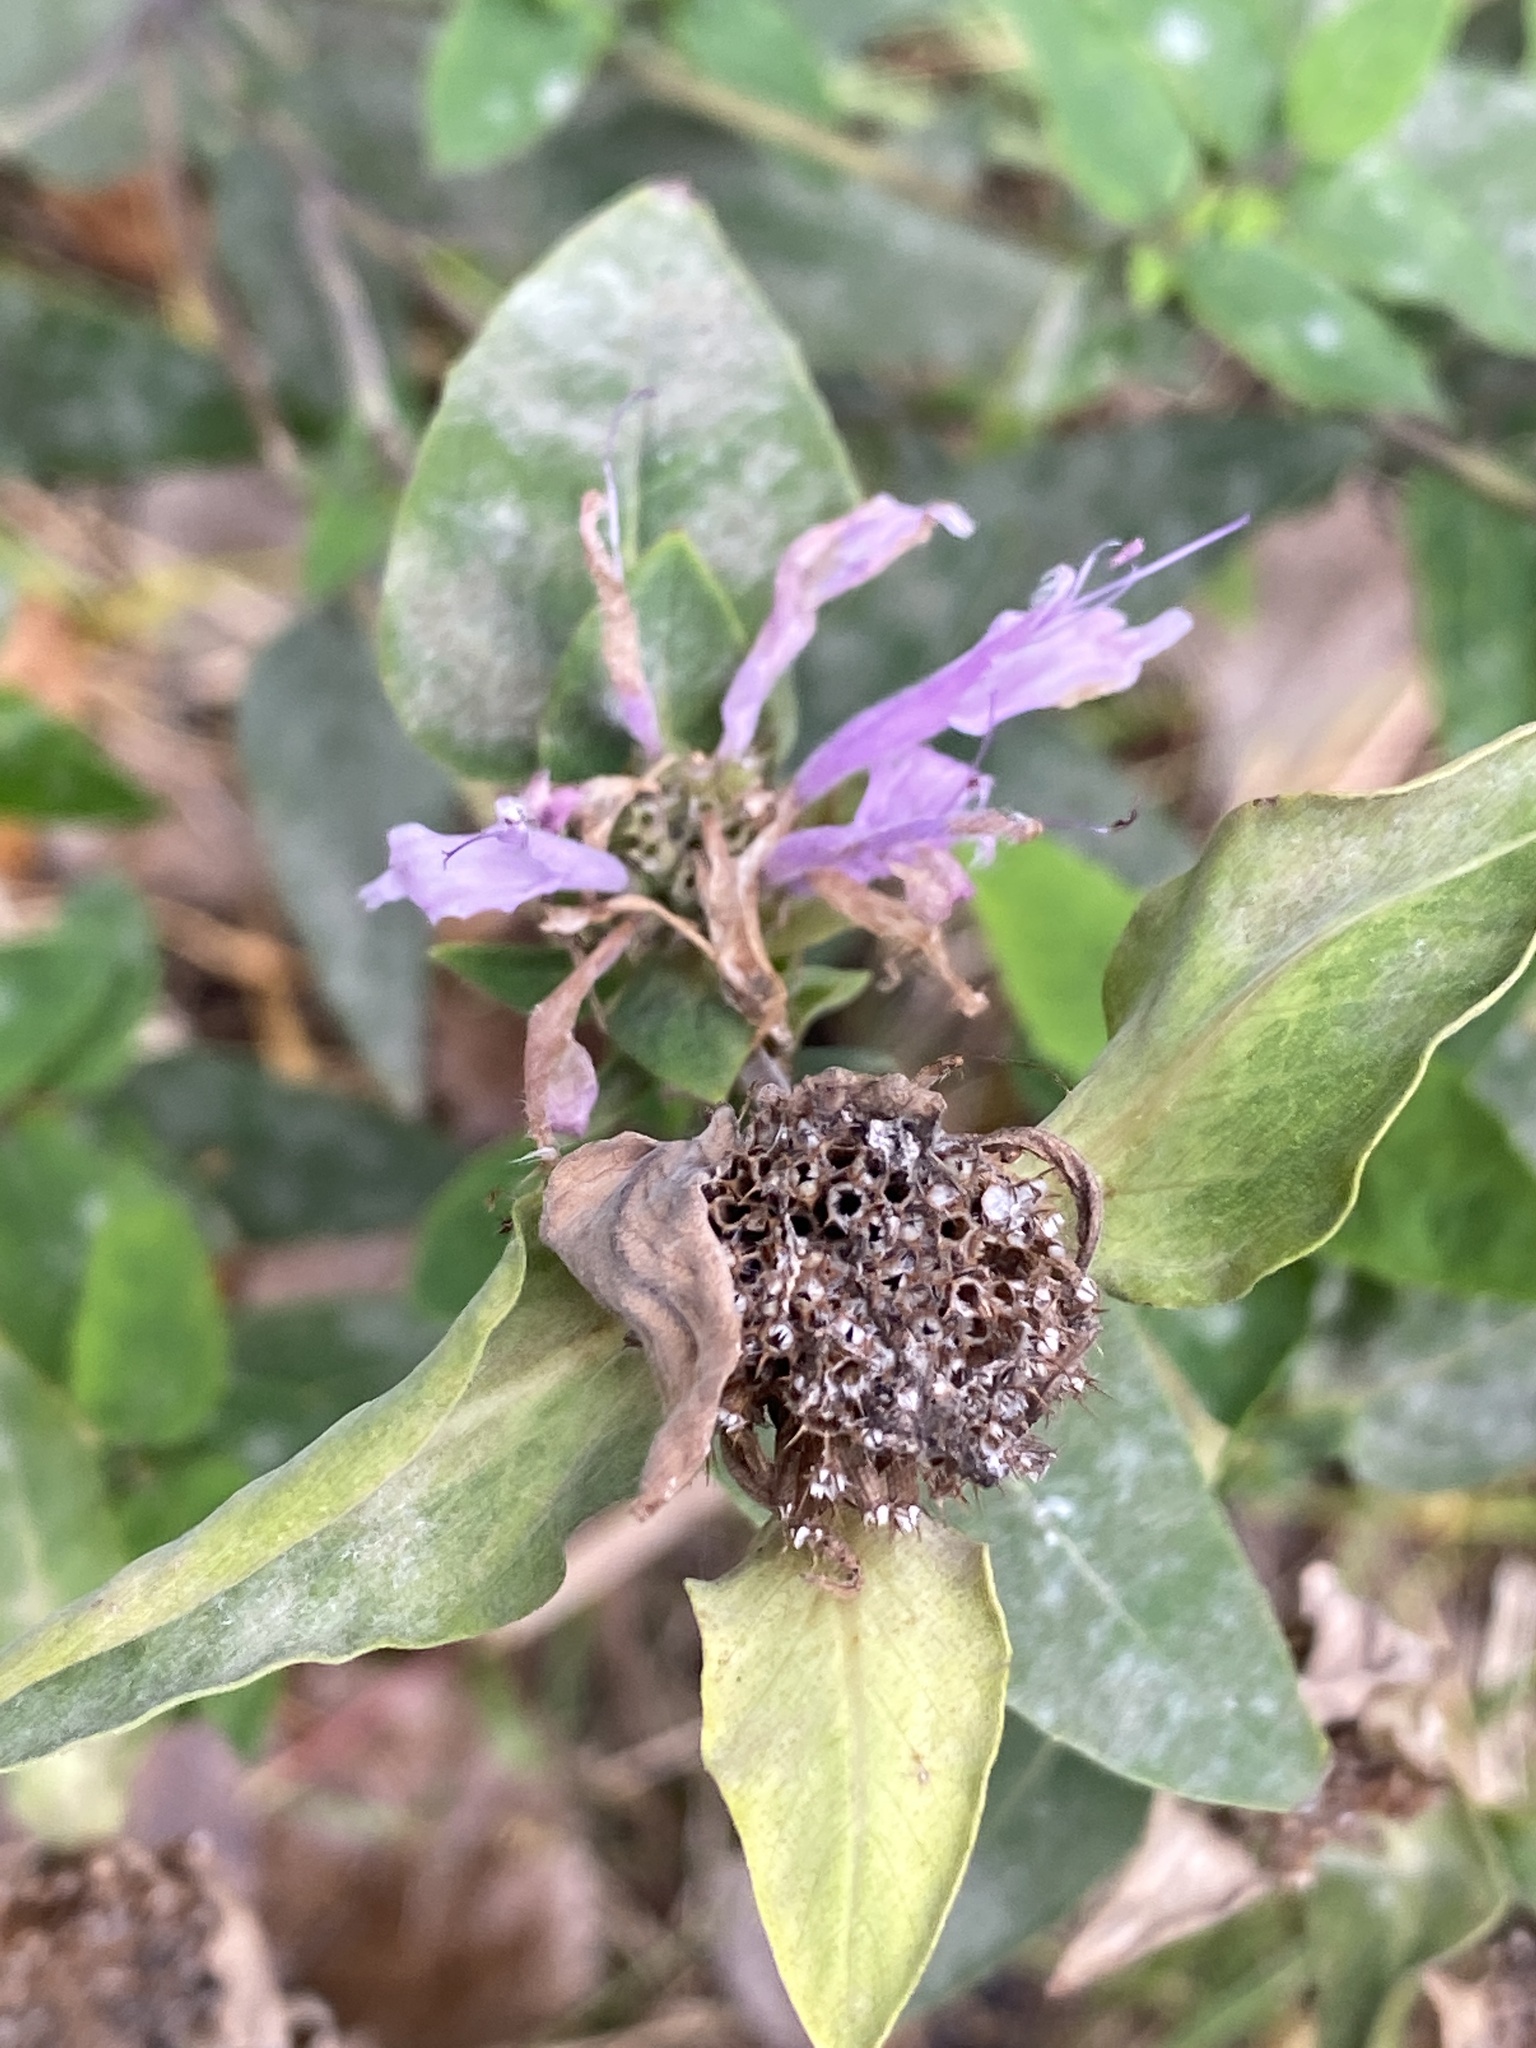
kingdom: Plantae
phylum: Tracheophyta
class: Magnoliopsida
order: Lamiales
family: Lamiaceae
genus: Monarda
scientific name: Monarda fistulosa
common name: Purple beebalm
